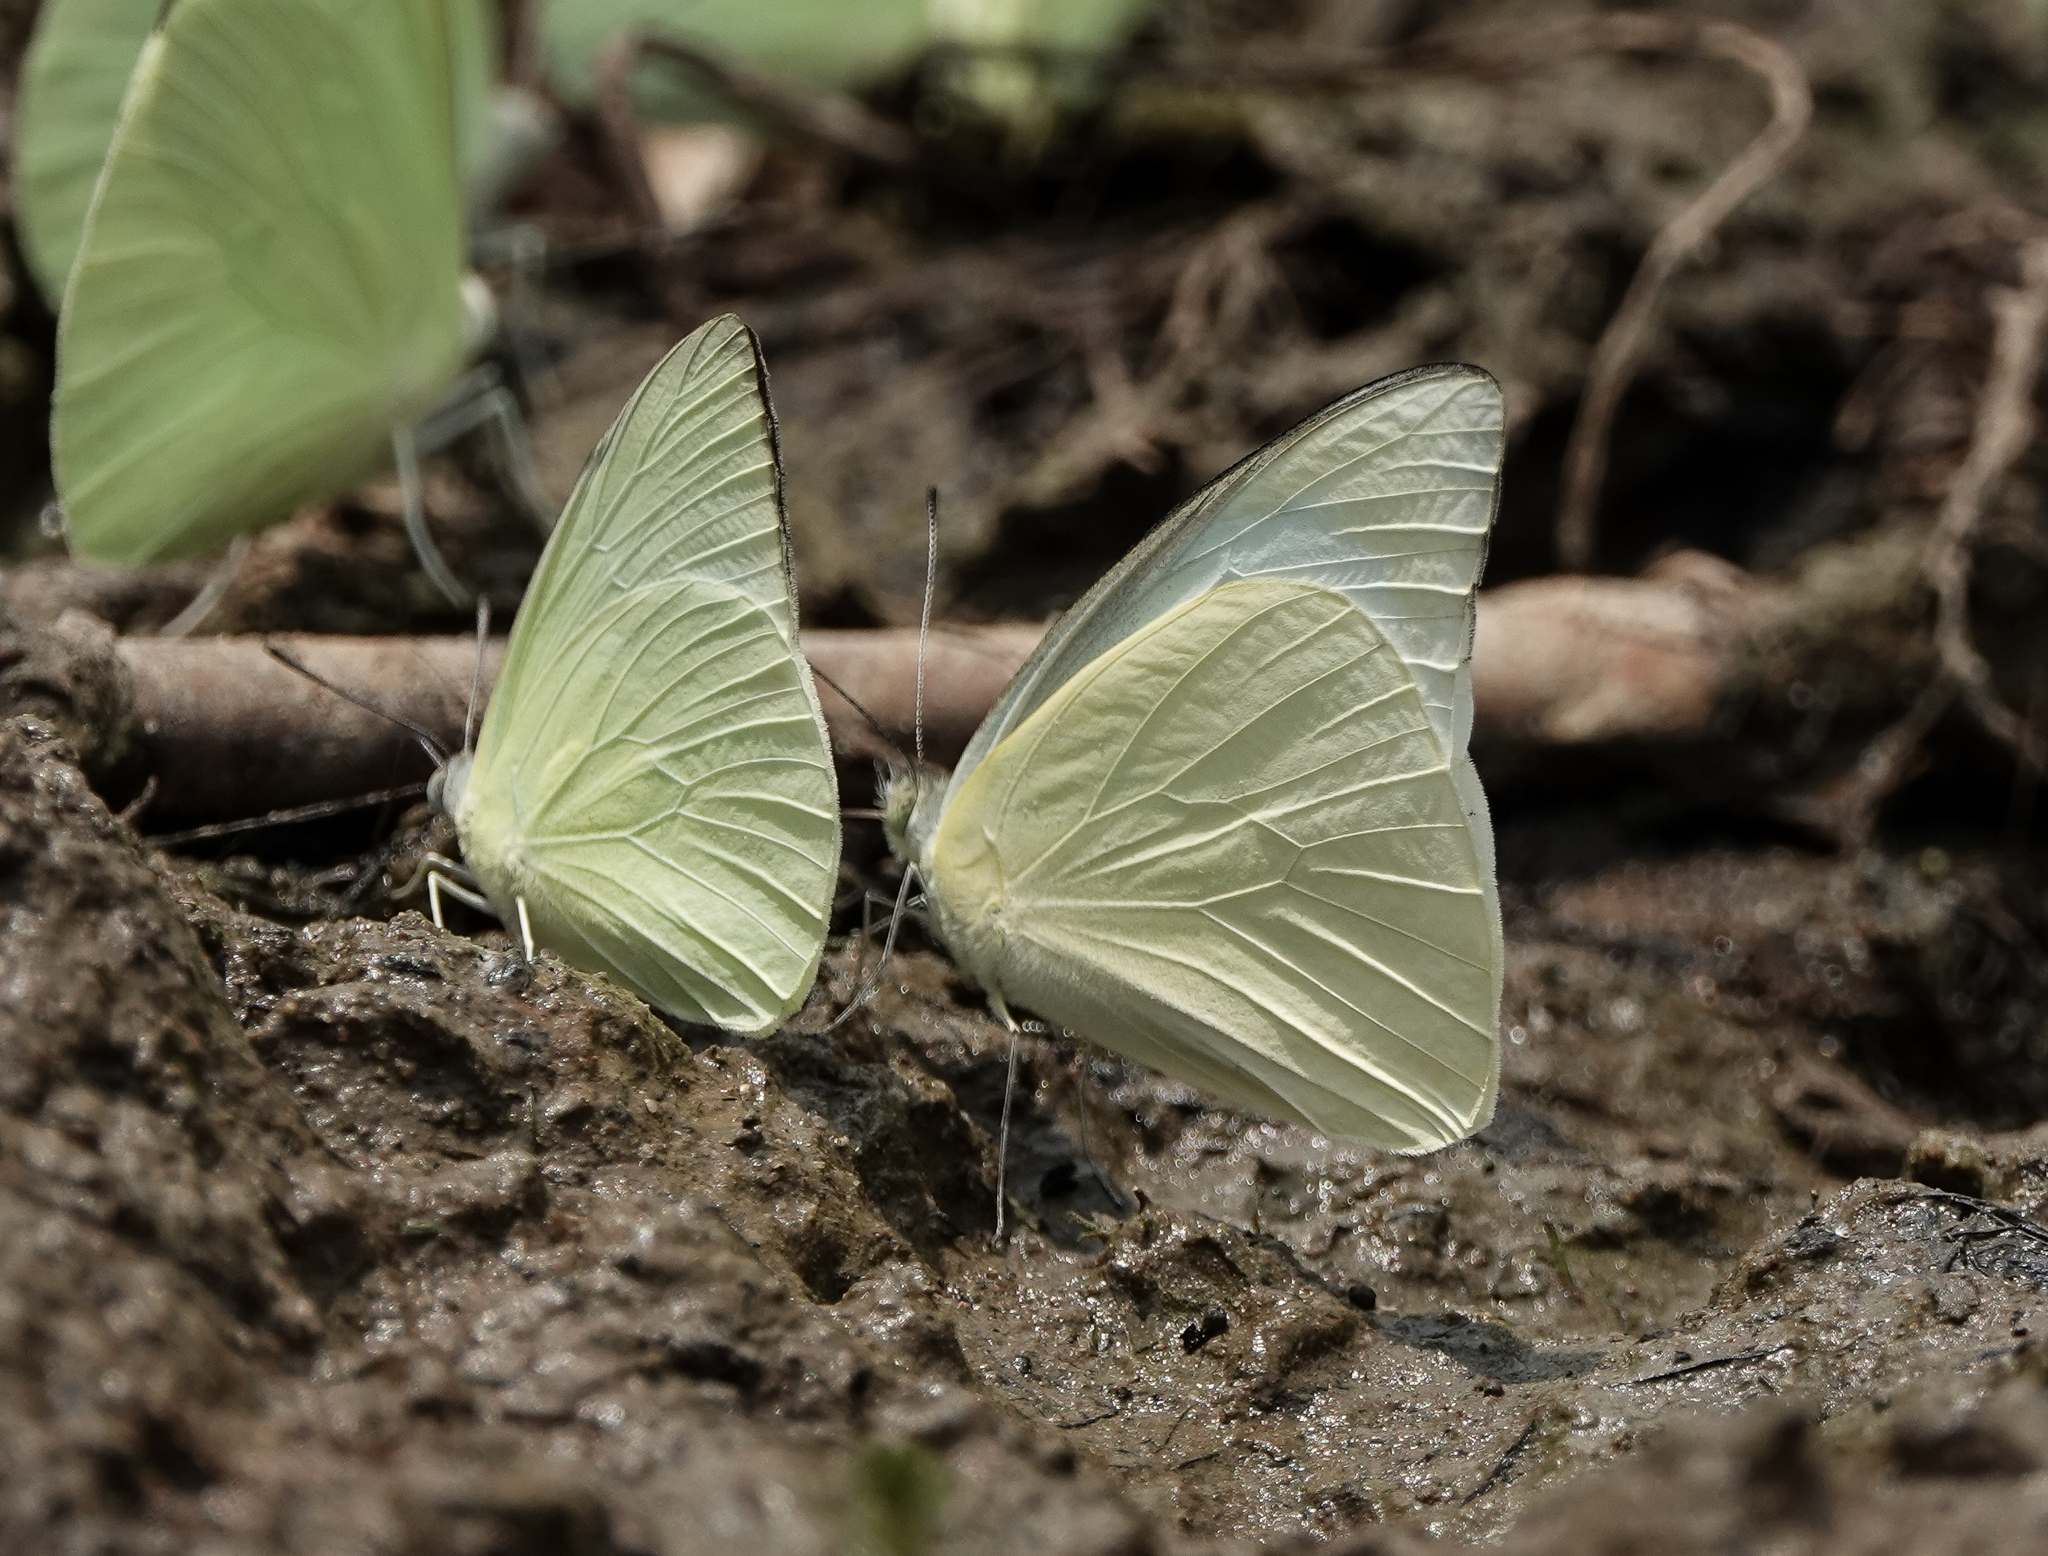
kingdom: Animalia
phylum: Arthropoda
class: Insecta
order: Lepidoptera
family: Pieridae
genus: Appias
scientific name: Appias albina
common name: Common albatross
